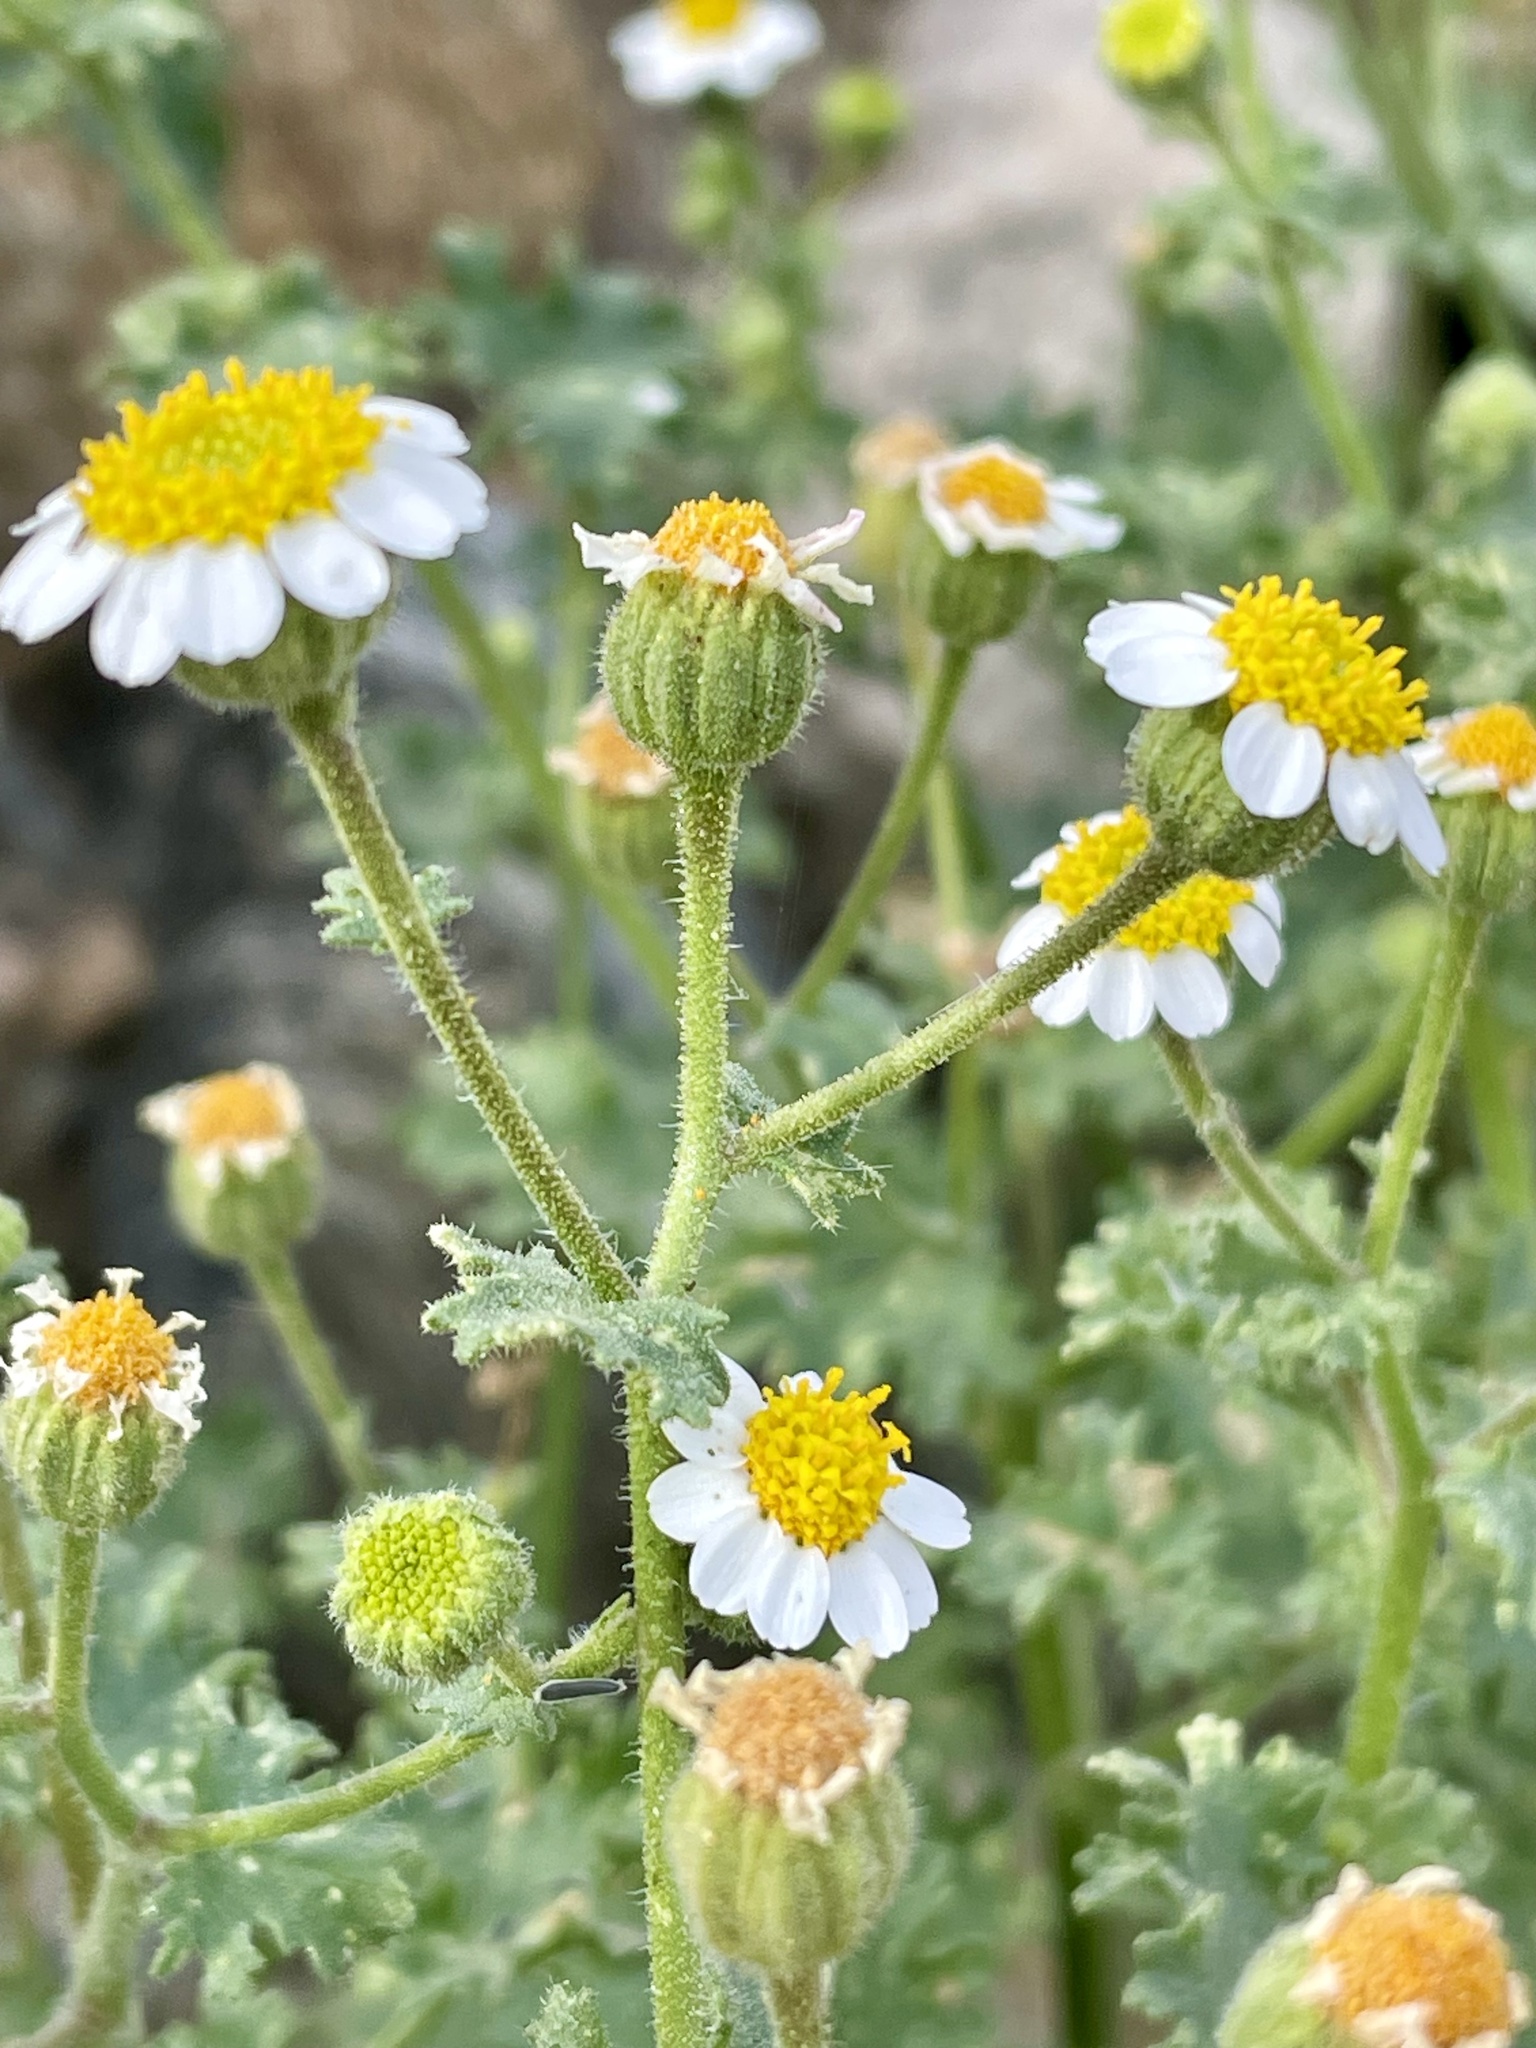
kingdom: Plantae
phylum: Tracheophyta
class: Magnoliopsida
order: Asterales
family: Asteraceae
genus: Laphamia
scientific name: Laphamia emoryi
